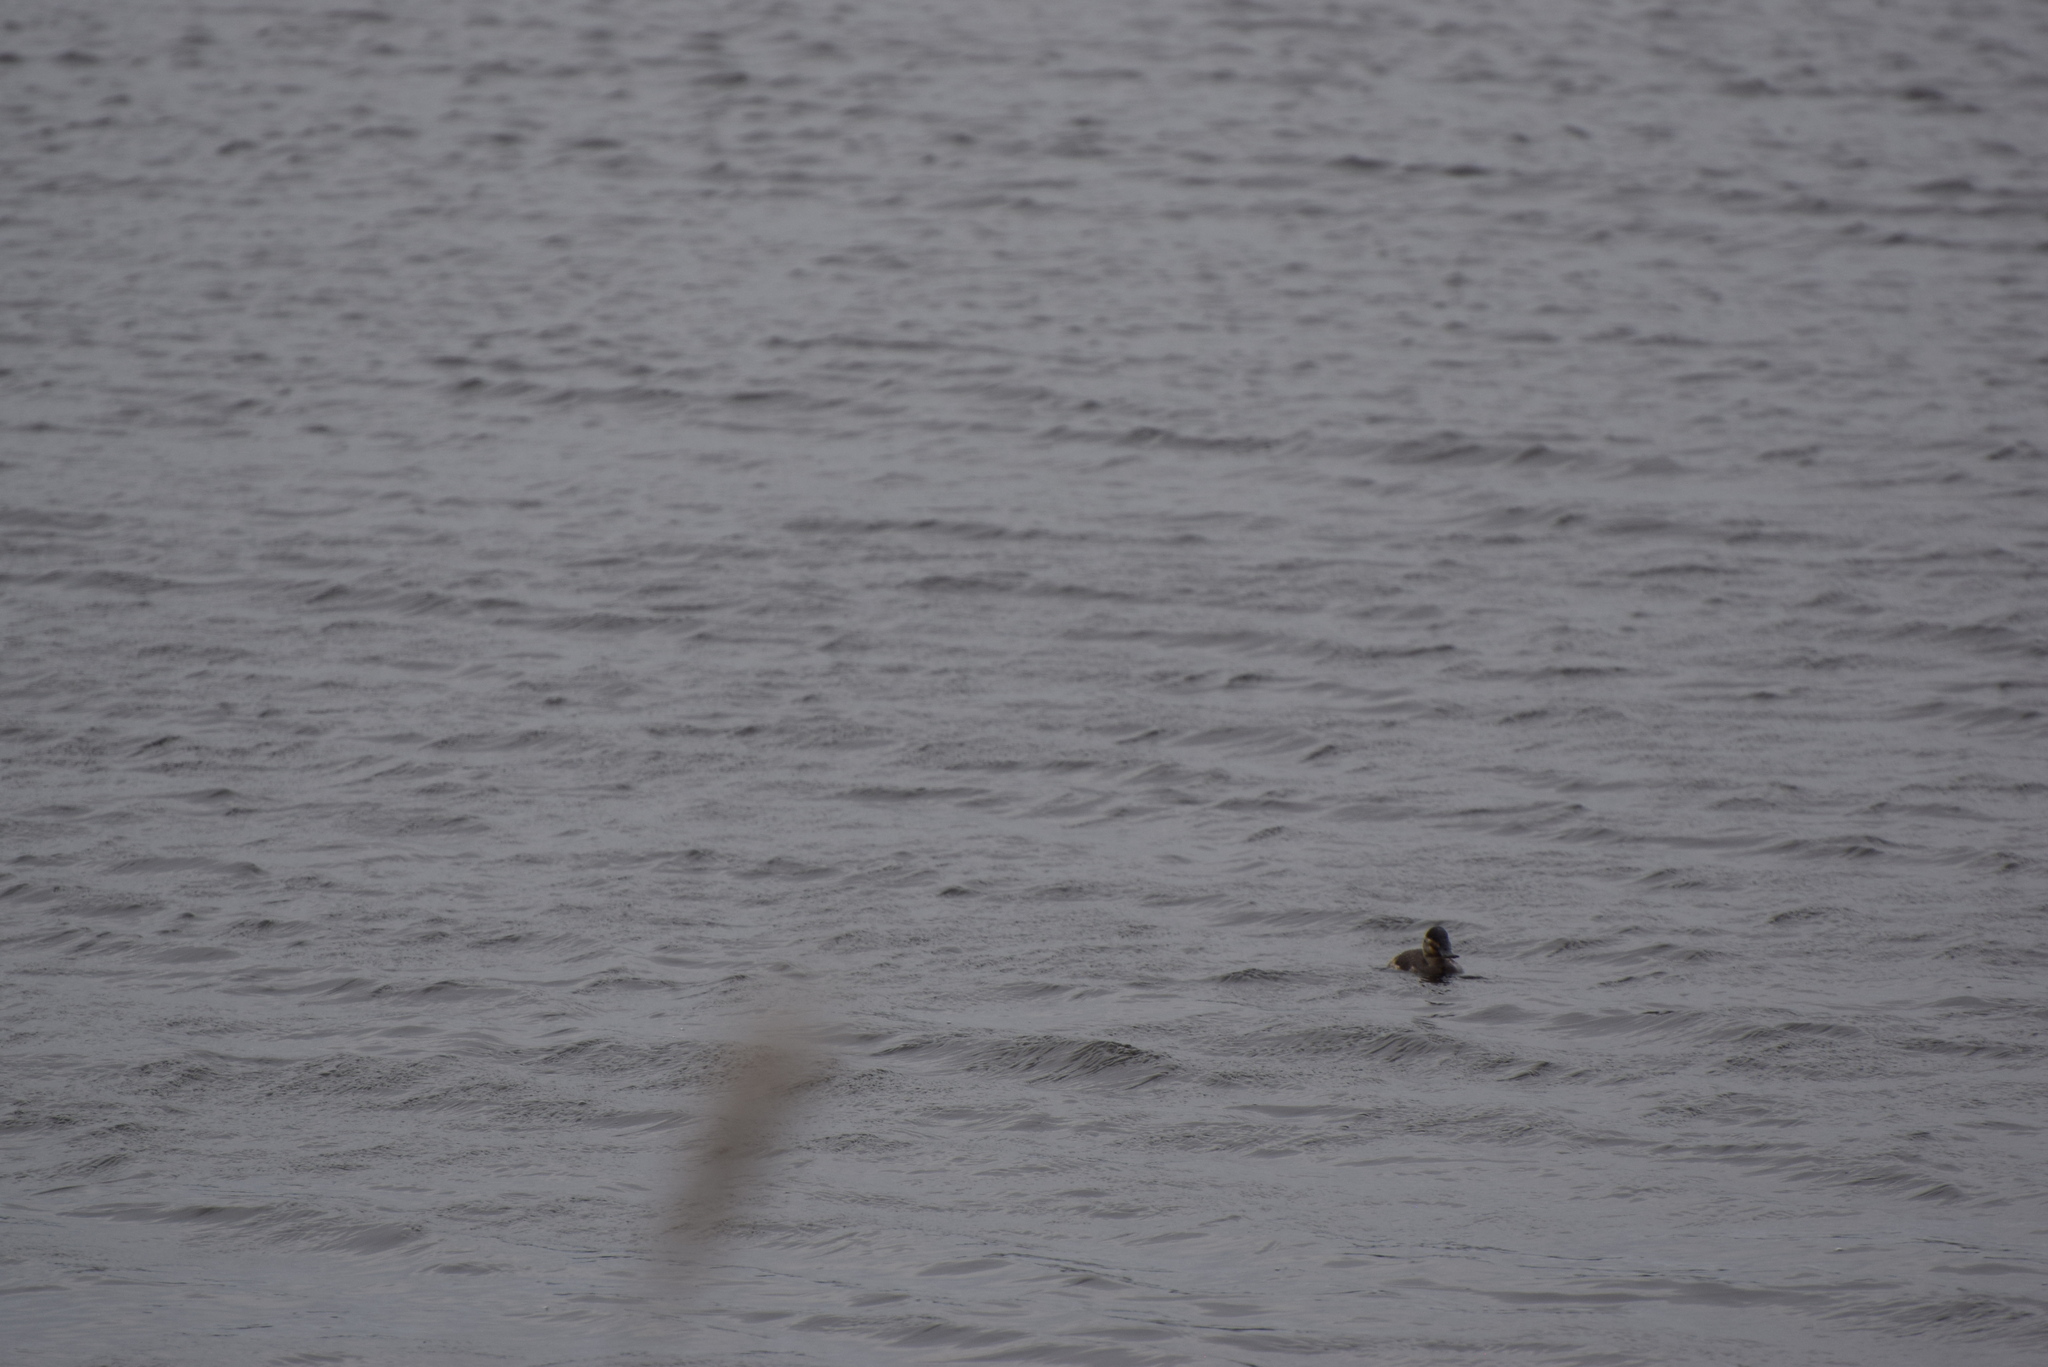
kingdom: Animalia
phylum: Chordata
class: Aves
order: Anseriformes
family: Anatidae
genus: Oxyura
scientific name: Oxyura jamaicensis
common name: Ruddy duck
